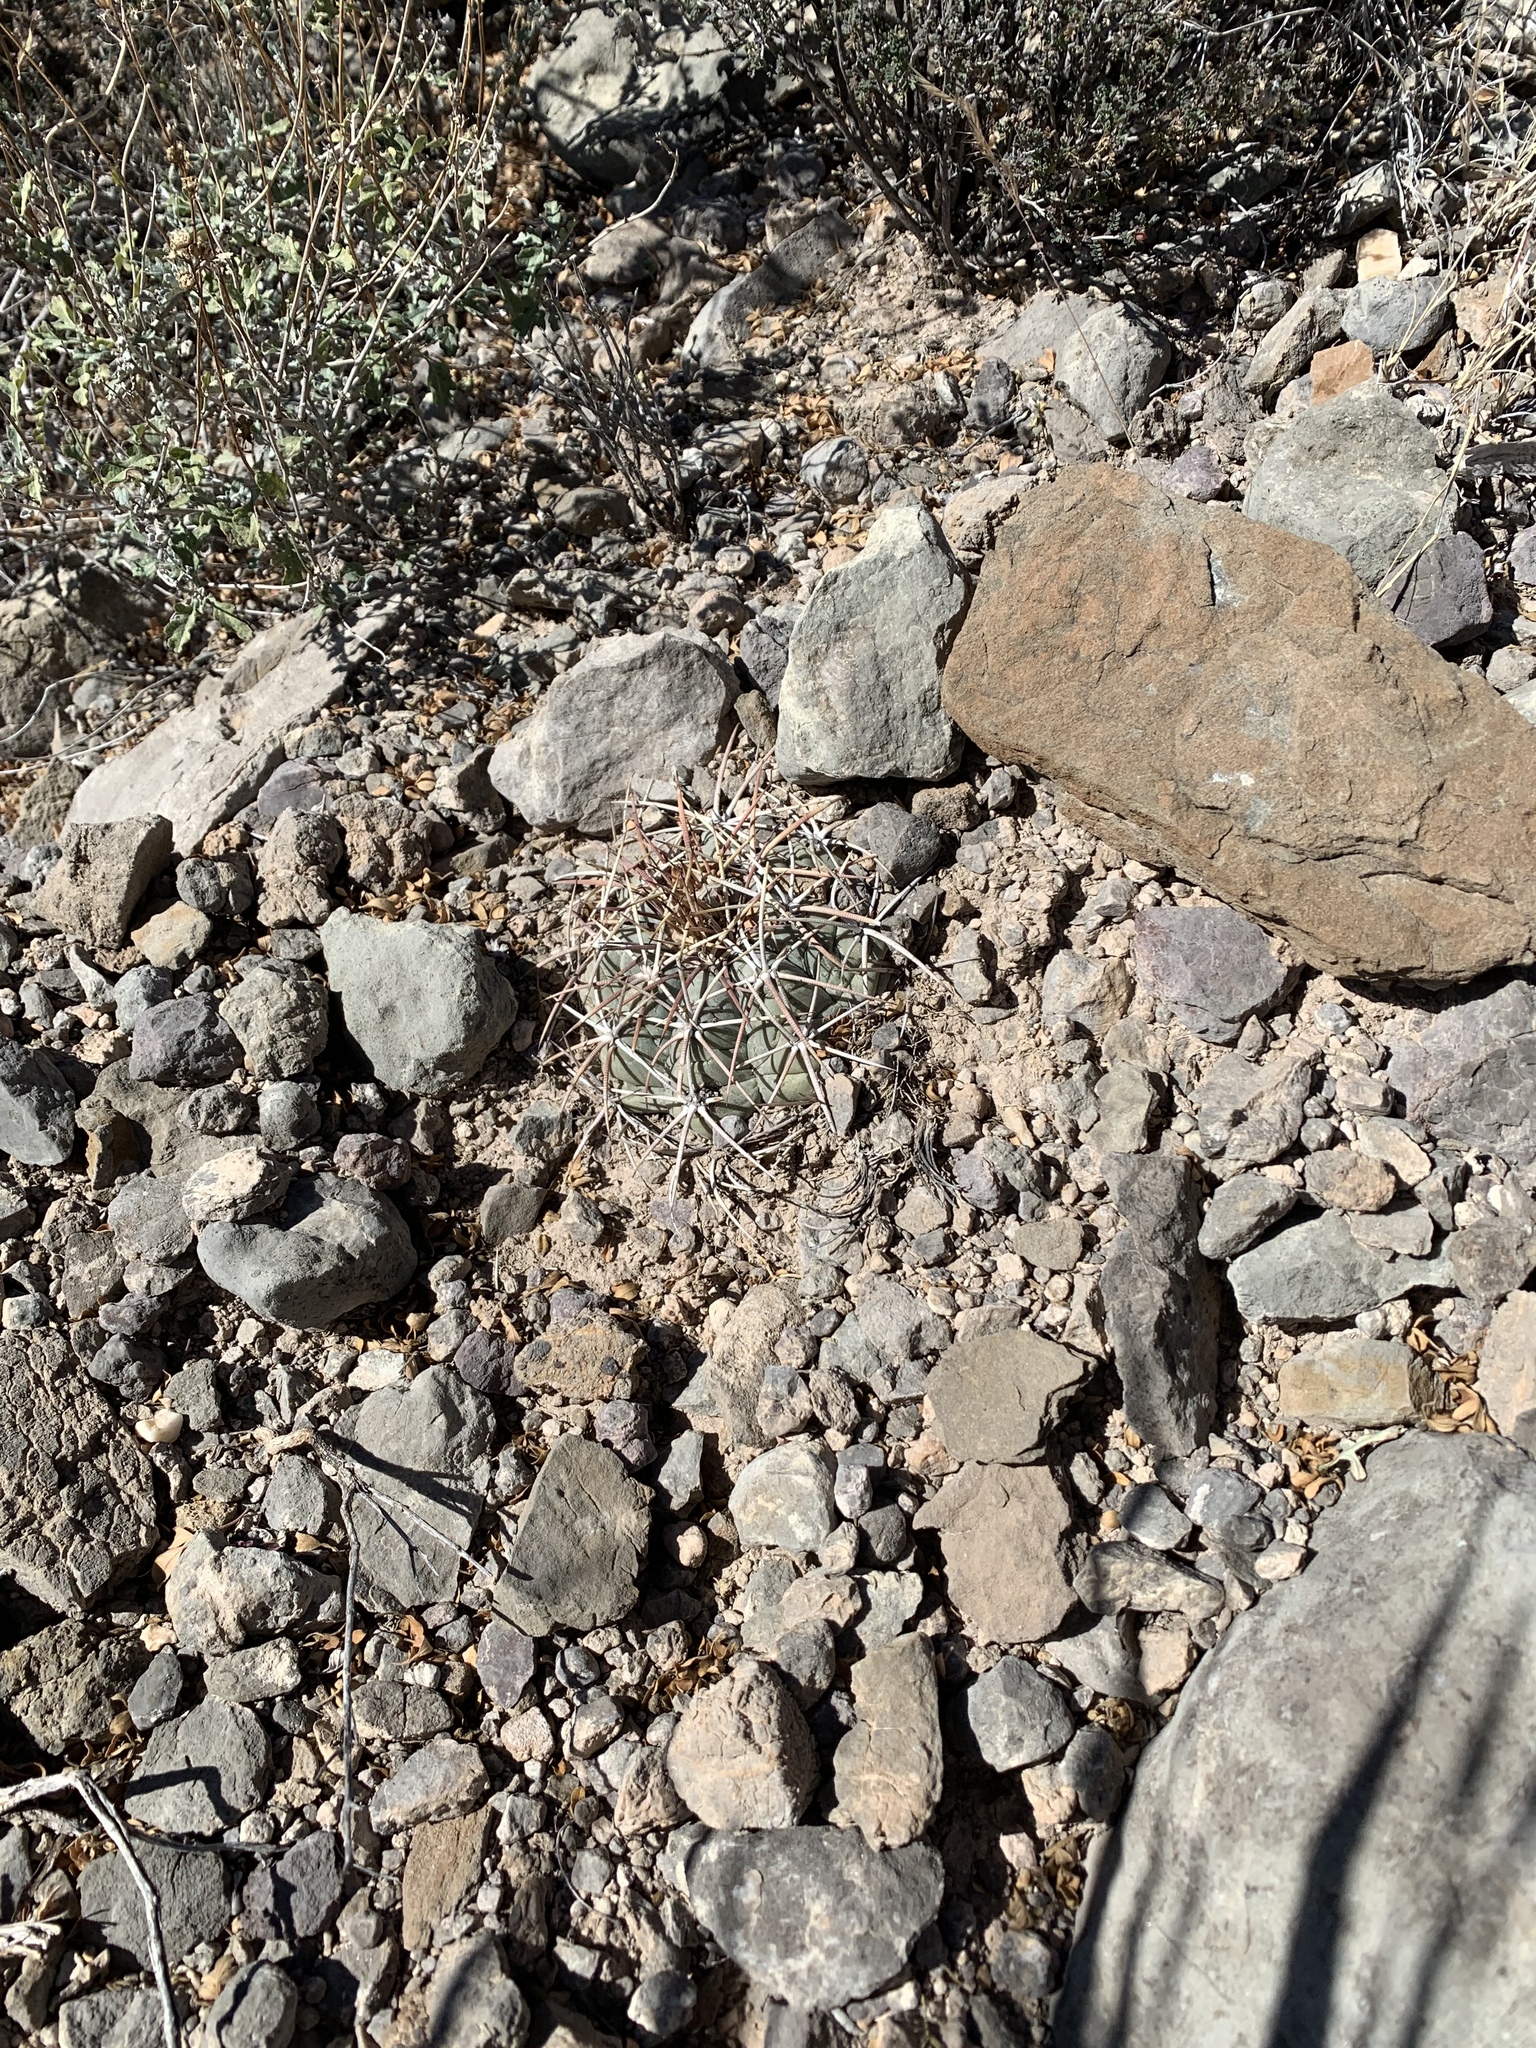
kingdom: Plantae
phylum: Tracheophyta
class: Magnoliopsida
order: Caryophyllales
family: Cactaceae
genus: Echinocactus
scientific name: Echinocactus horizonthalonius
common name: Devilshead
